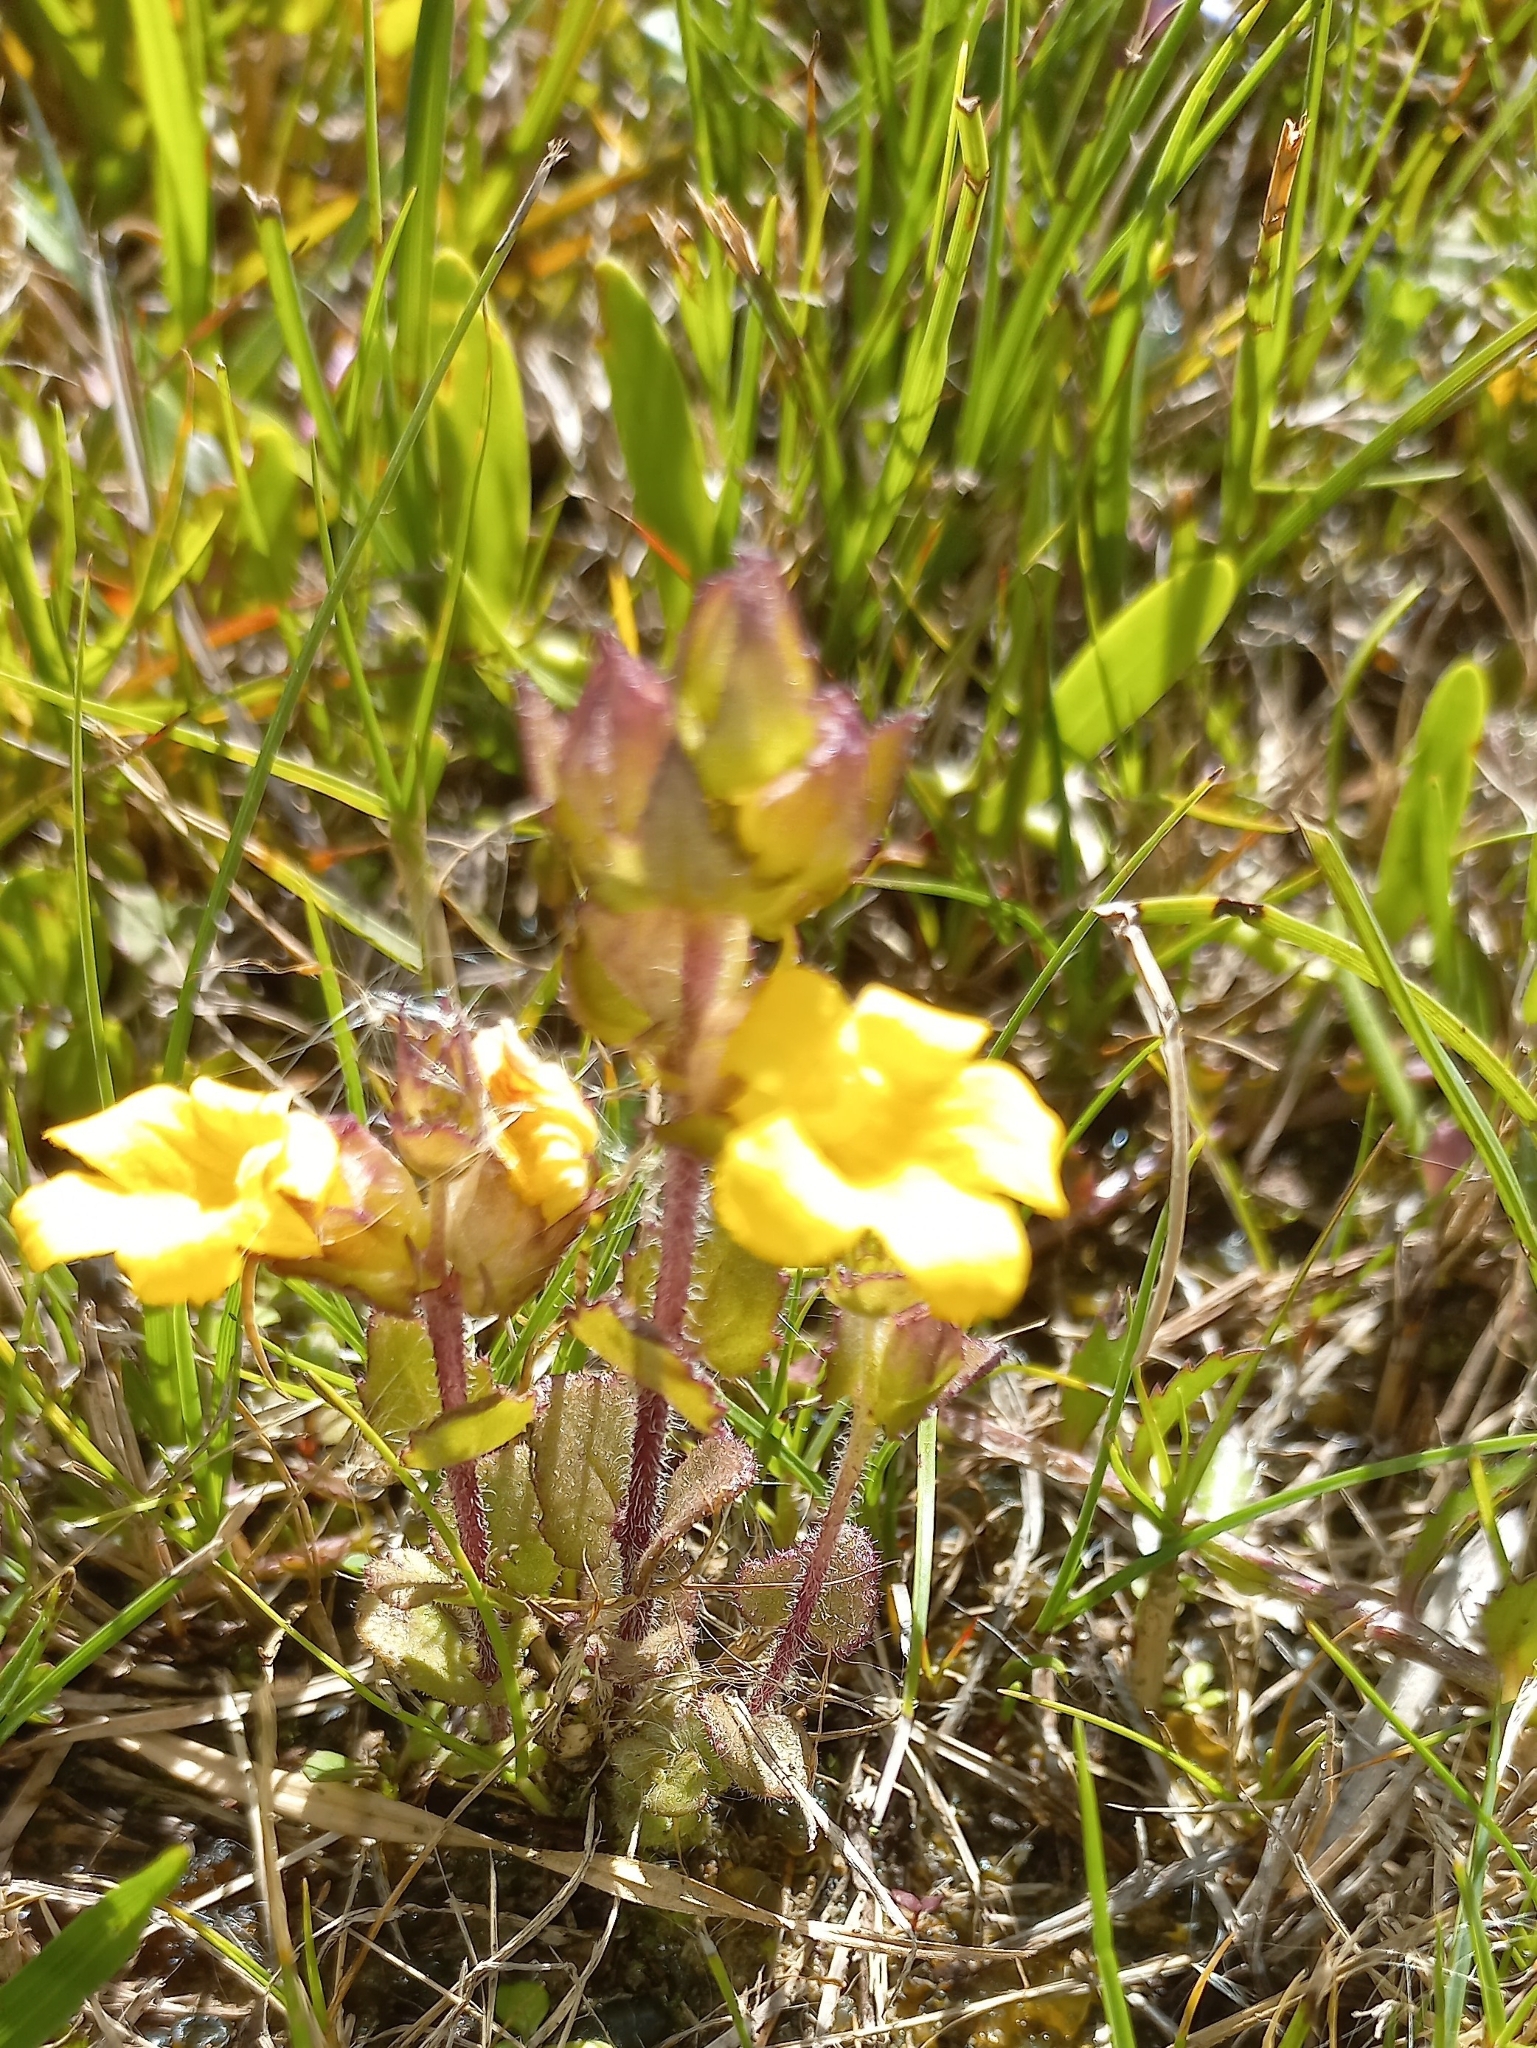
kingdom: Plantae
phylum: Tracheophyta
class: Magnoliopsida
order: Lamiales
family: Orobanchaceae
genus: Alectra
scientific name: Alectra sessiliflora
